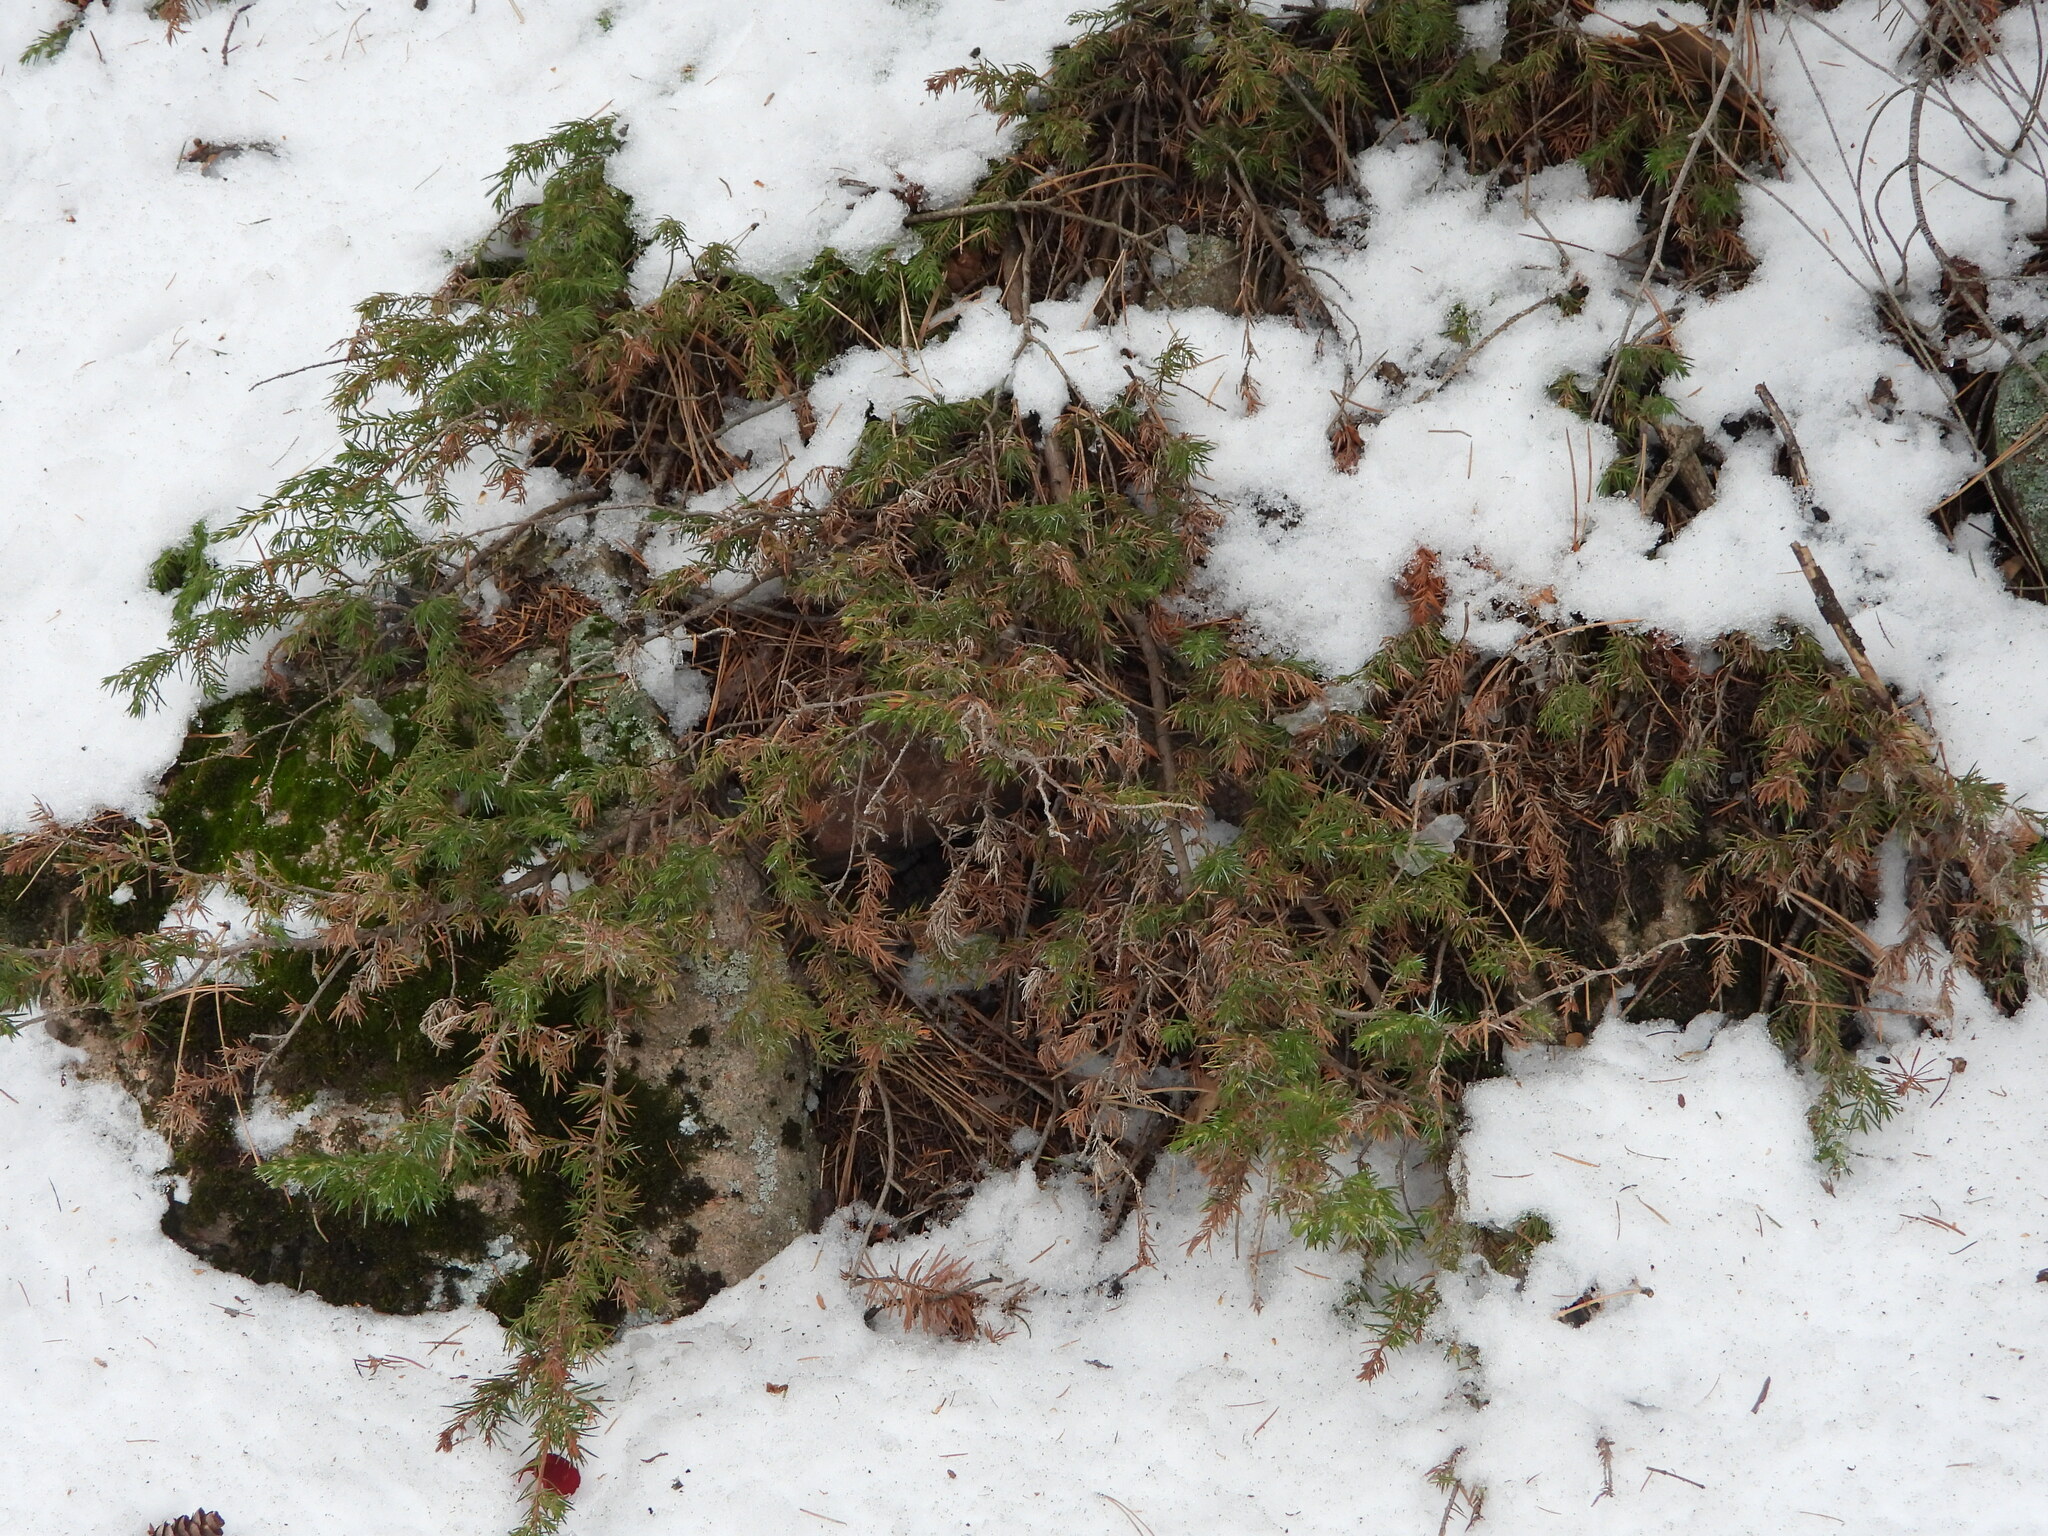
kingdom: Plantae
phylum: Tracheophyta
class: Pinopsida
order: Pinales
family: Cupressaceae
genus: Juniperus
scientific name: Juniperus communis
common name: Common juniper
